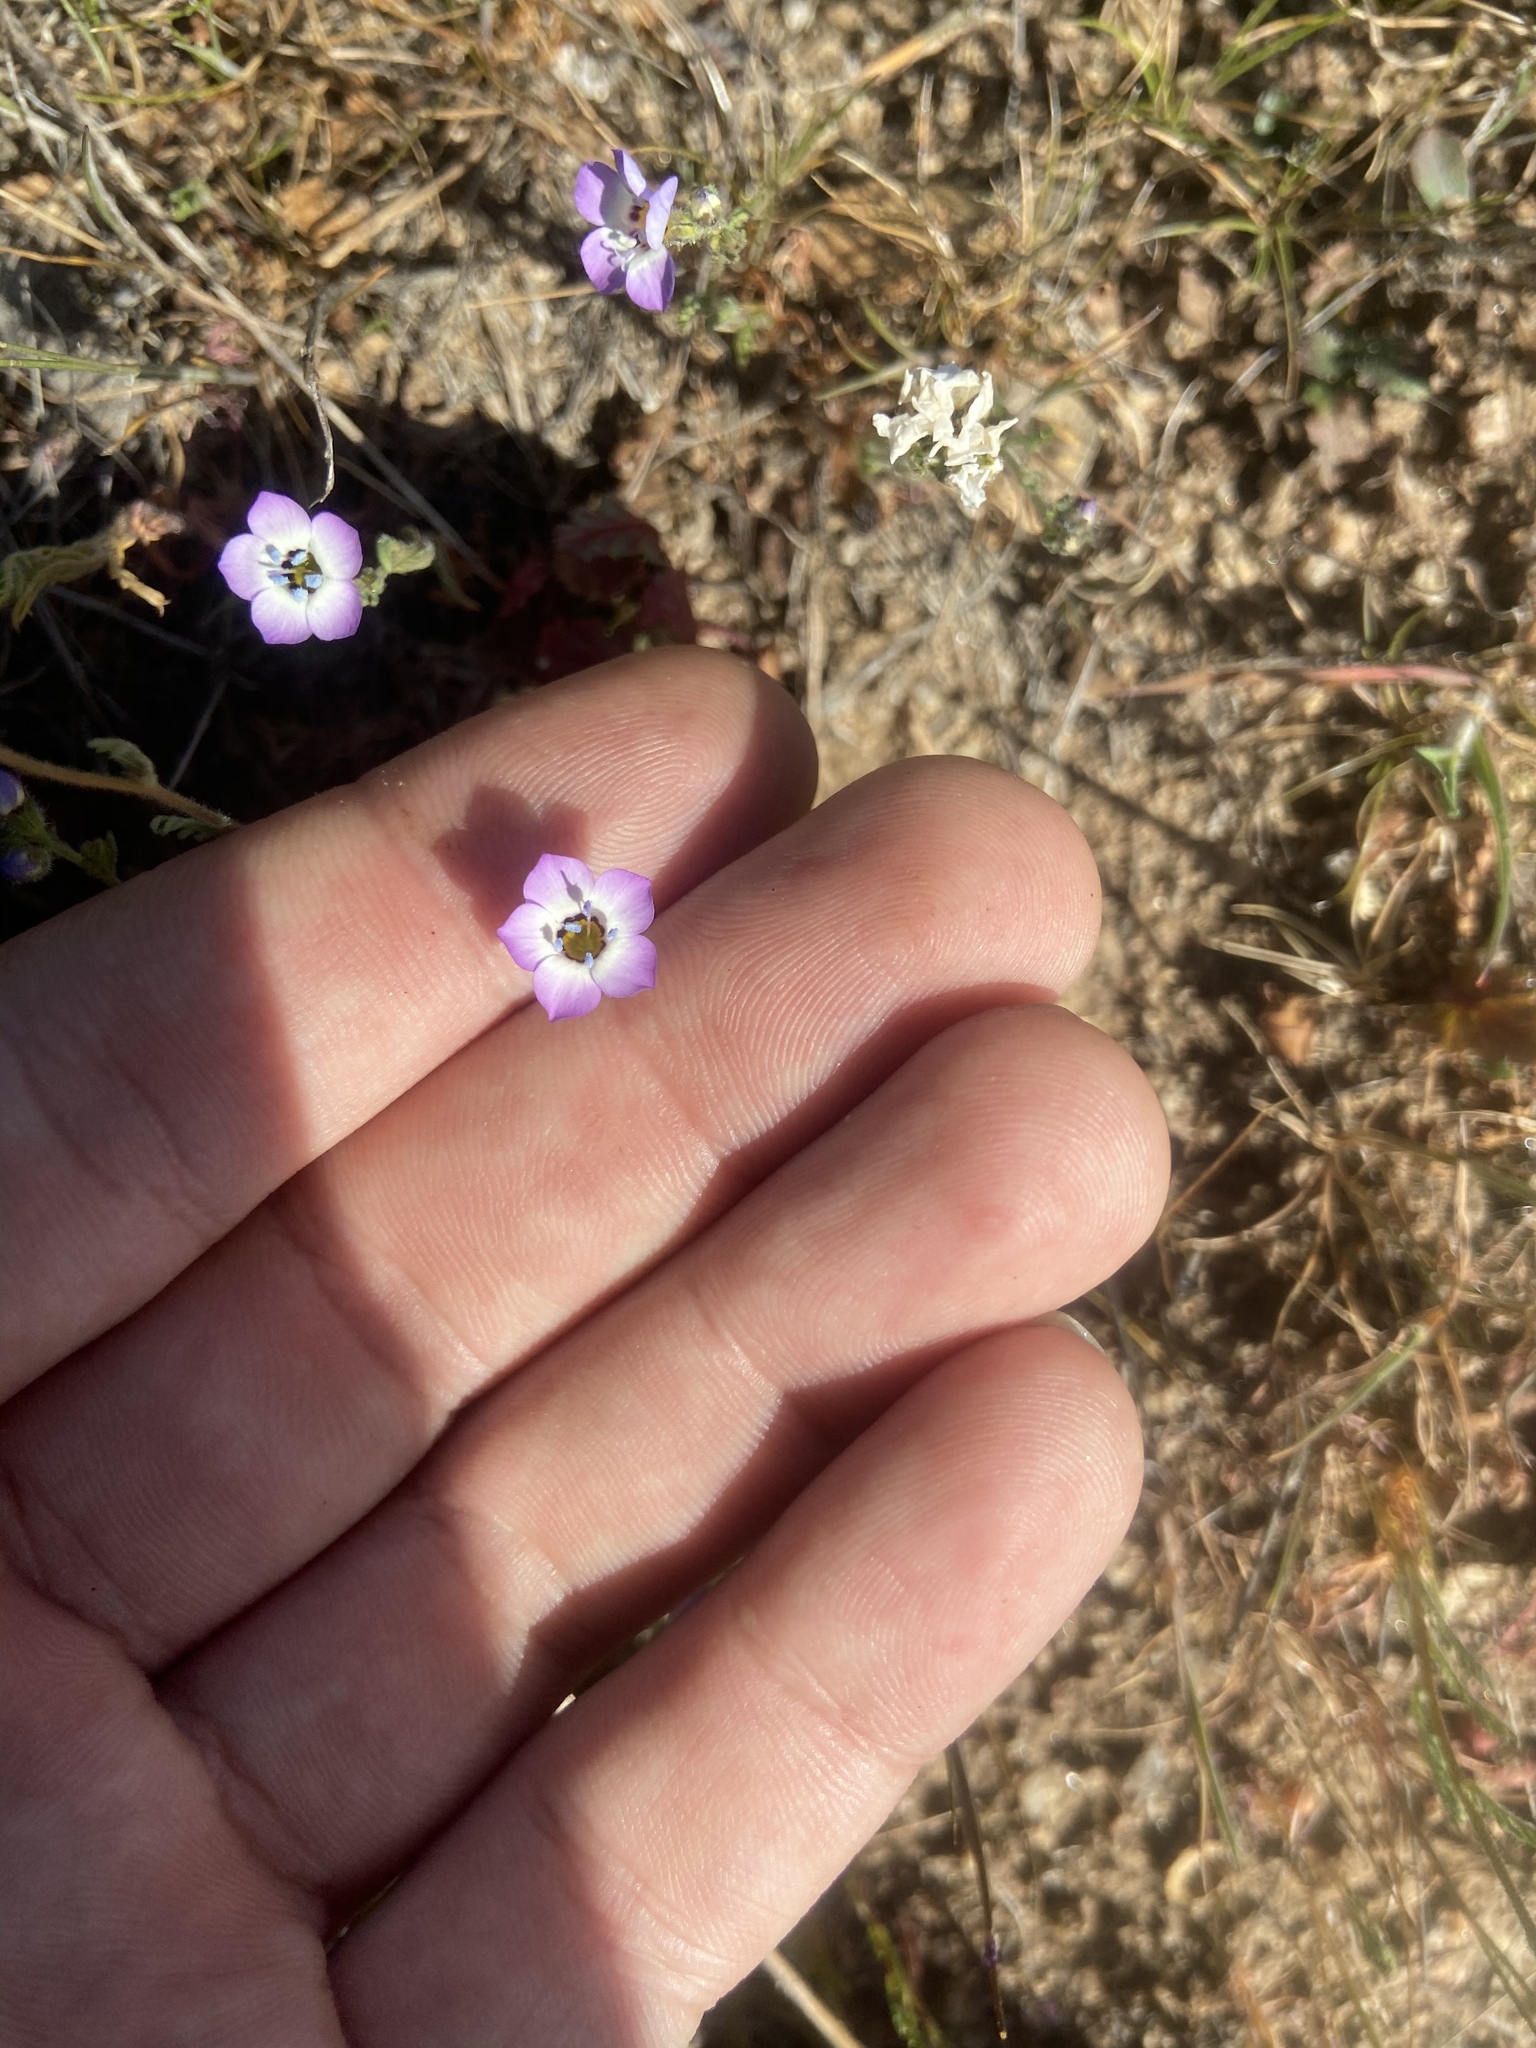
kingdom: Plantae
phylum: Tracheophyta
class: Magnoliopsida
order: Ericales
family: Polemoniaceae
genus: Gilia
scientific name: Gilia tricolor
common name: Bird's-eyes
